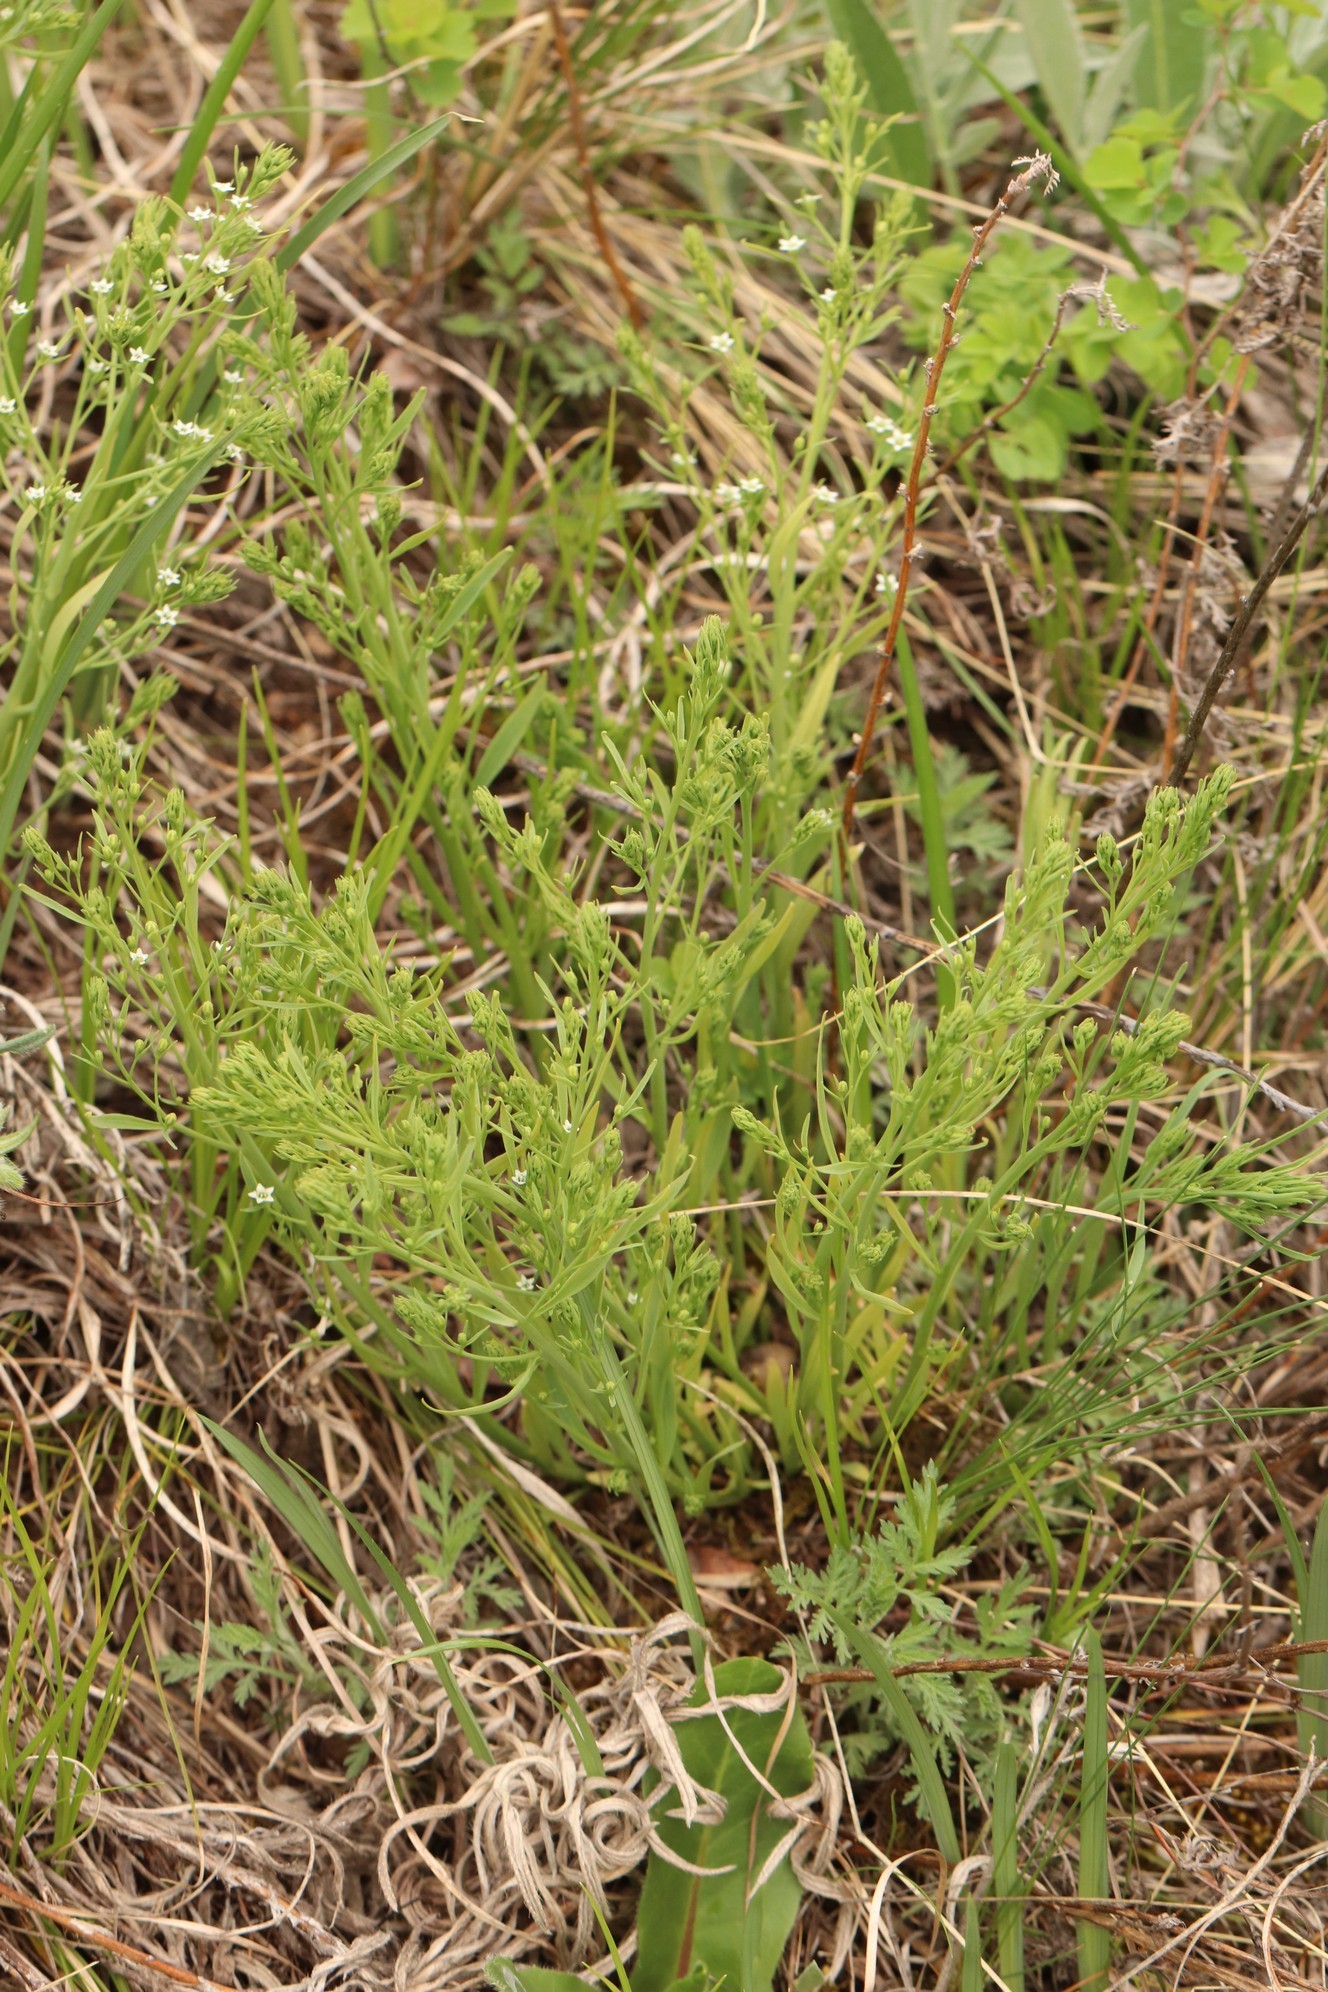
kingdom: Plantae
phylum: Tracheophyta
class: Magnoliopsida
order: Santalales
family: Thesiaceae
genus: Thesium
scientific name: Thesium refractum
